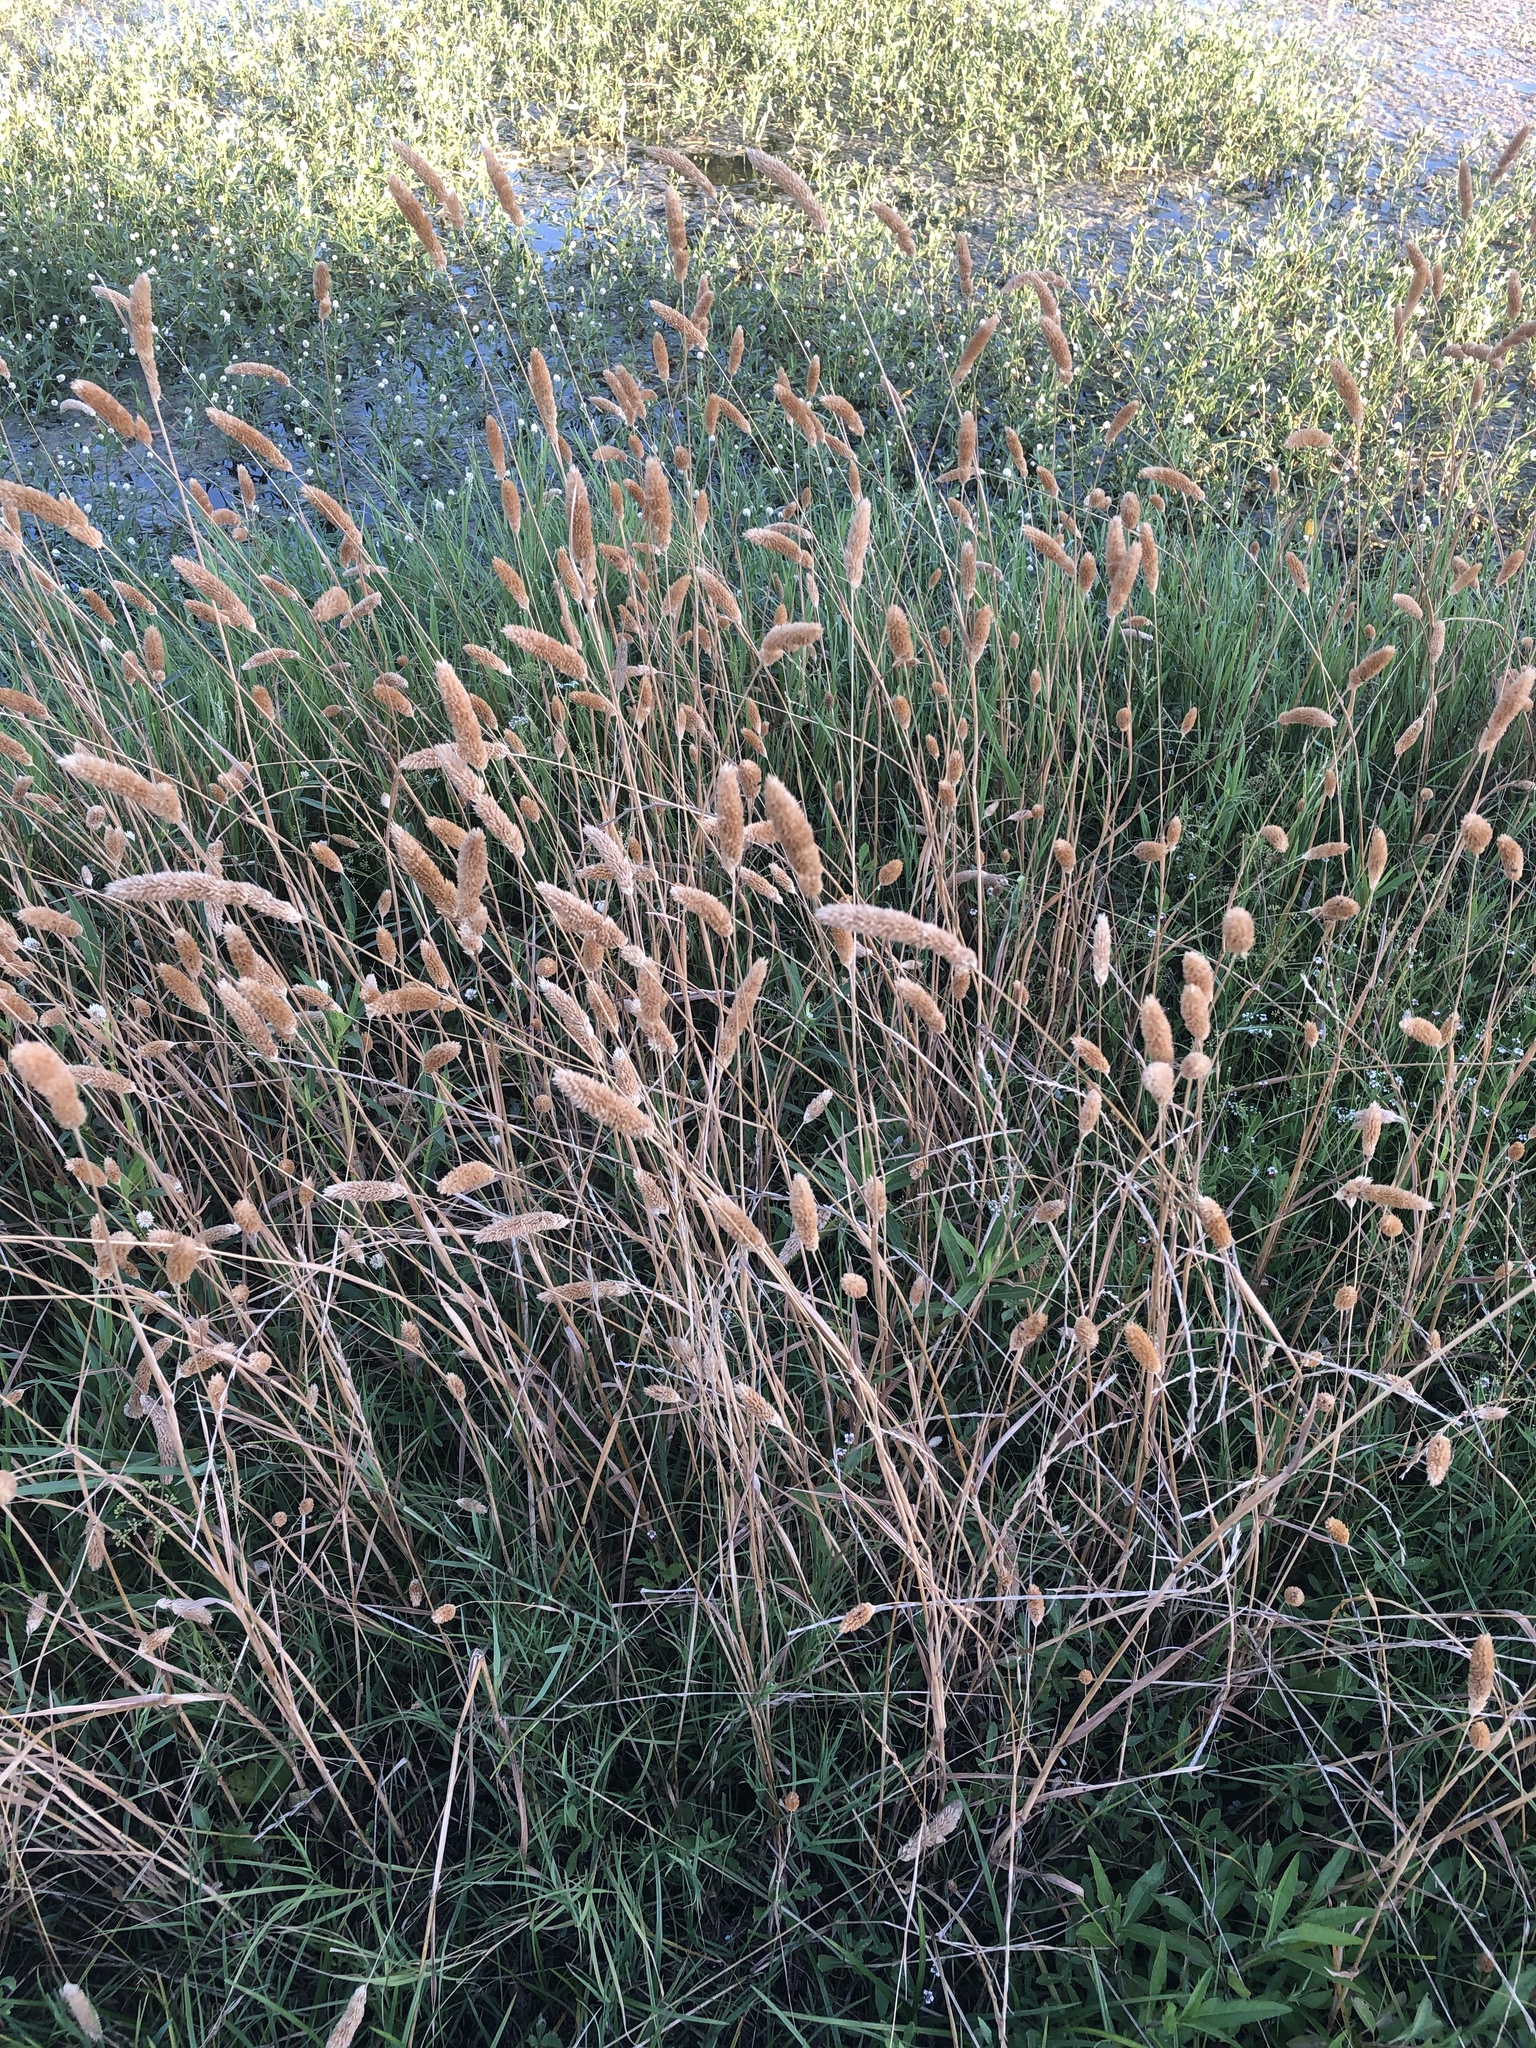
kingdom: Plantae
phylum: Tracheophyta
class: Liliopsida
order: Poales
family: Poaceae
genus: Phalaris
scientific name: Phalaris caroliniana
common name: May grass
